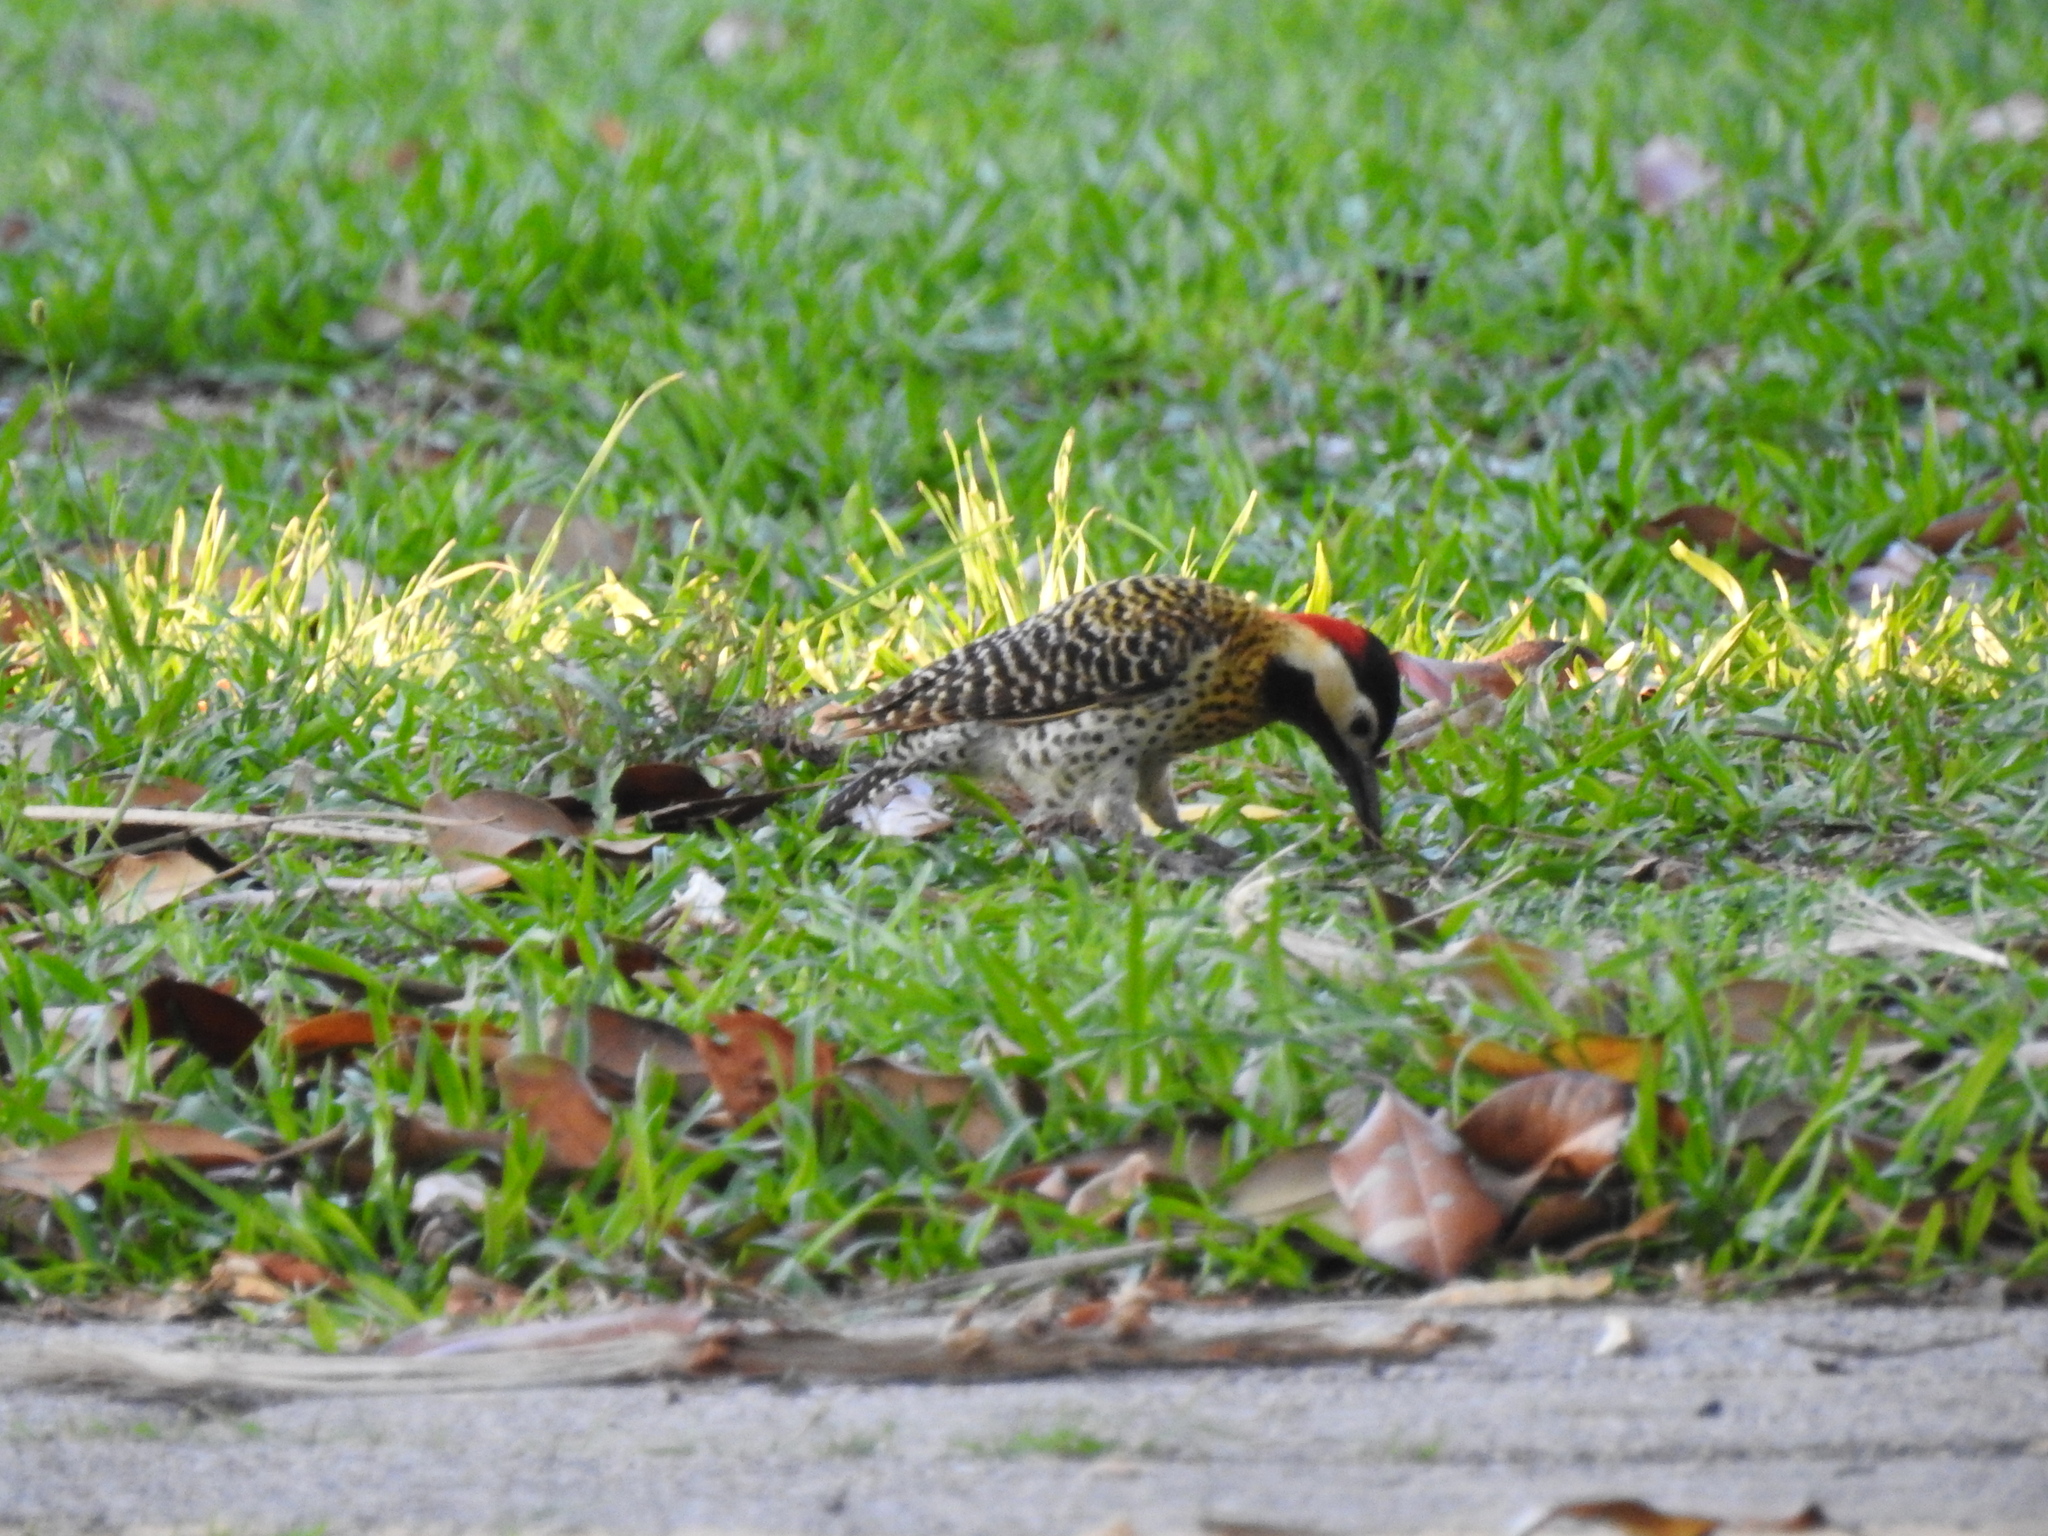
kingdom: Animalia
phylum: Chordata
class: Aves
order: Piciformes
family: Picidae
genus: Colaptes
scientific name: Colaptes melanochloros
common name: Green-barred woodpecker
